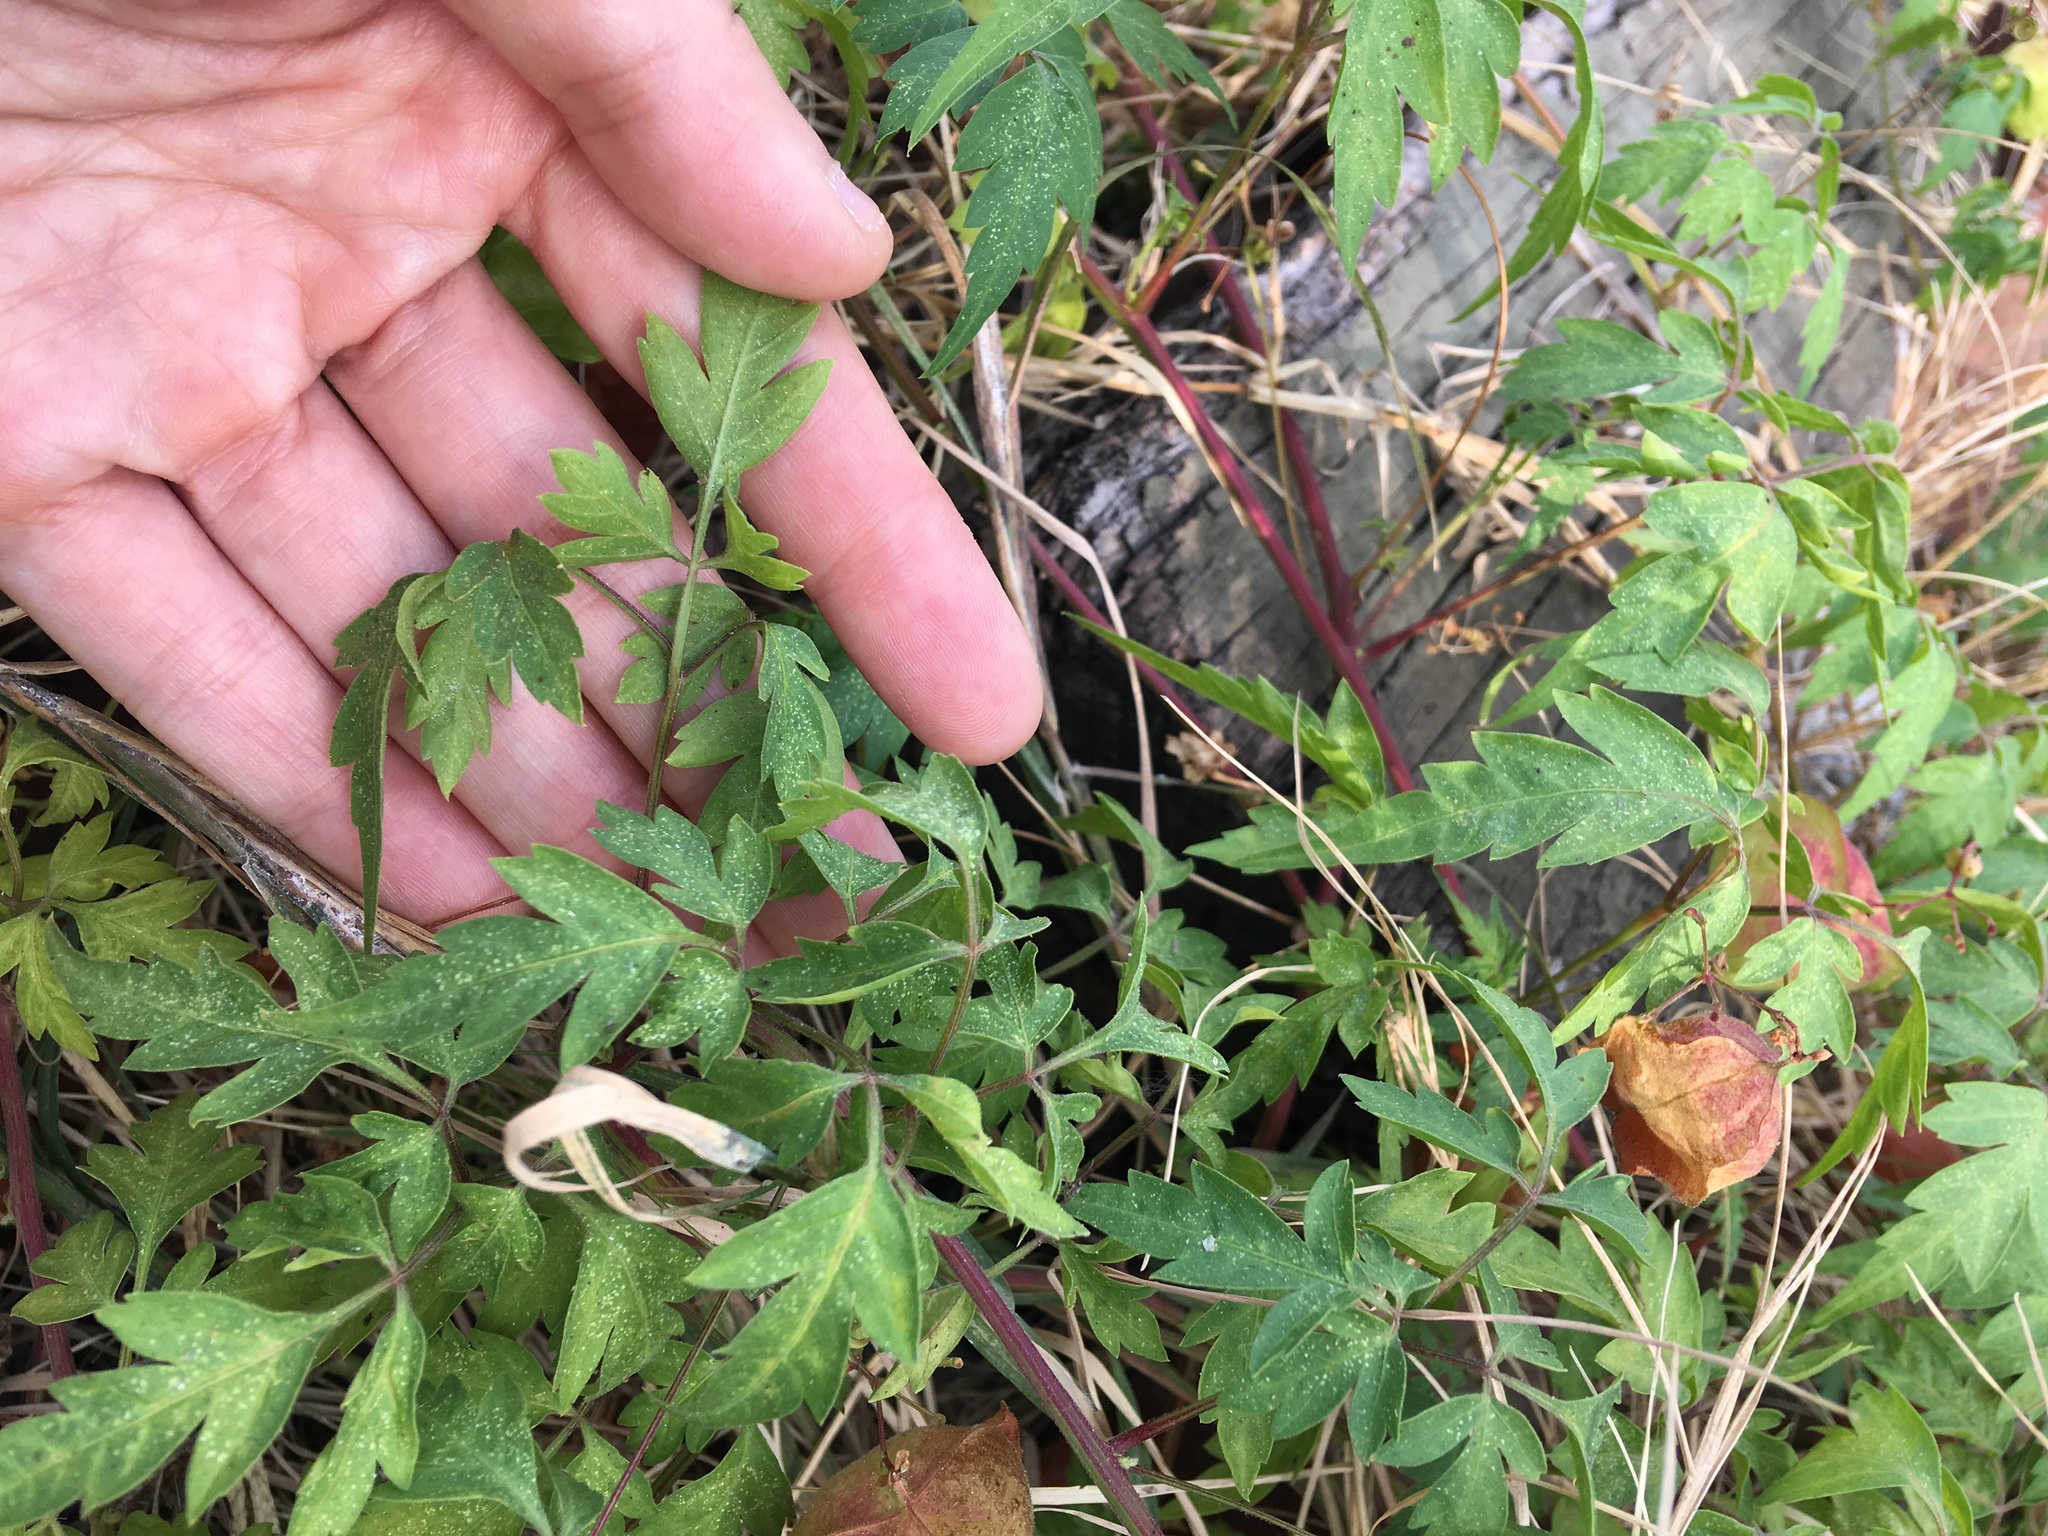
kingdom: Plantae
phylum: Tracheophyta
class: Magnoliopsida
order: Sapindales
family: Sapindaceae
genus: Cardiospermum
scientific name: Cardiospermum halicacabum
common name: Balloon vine
